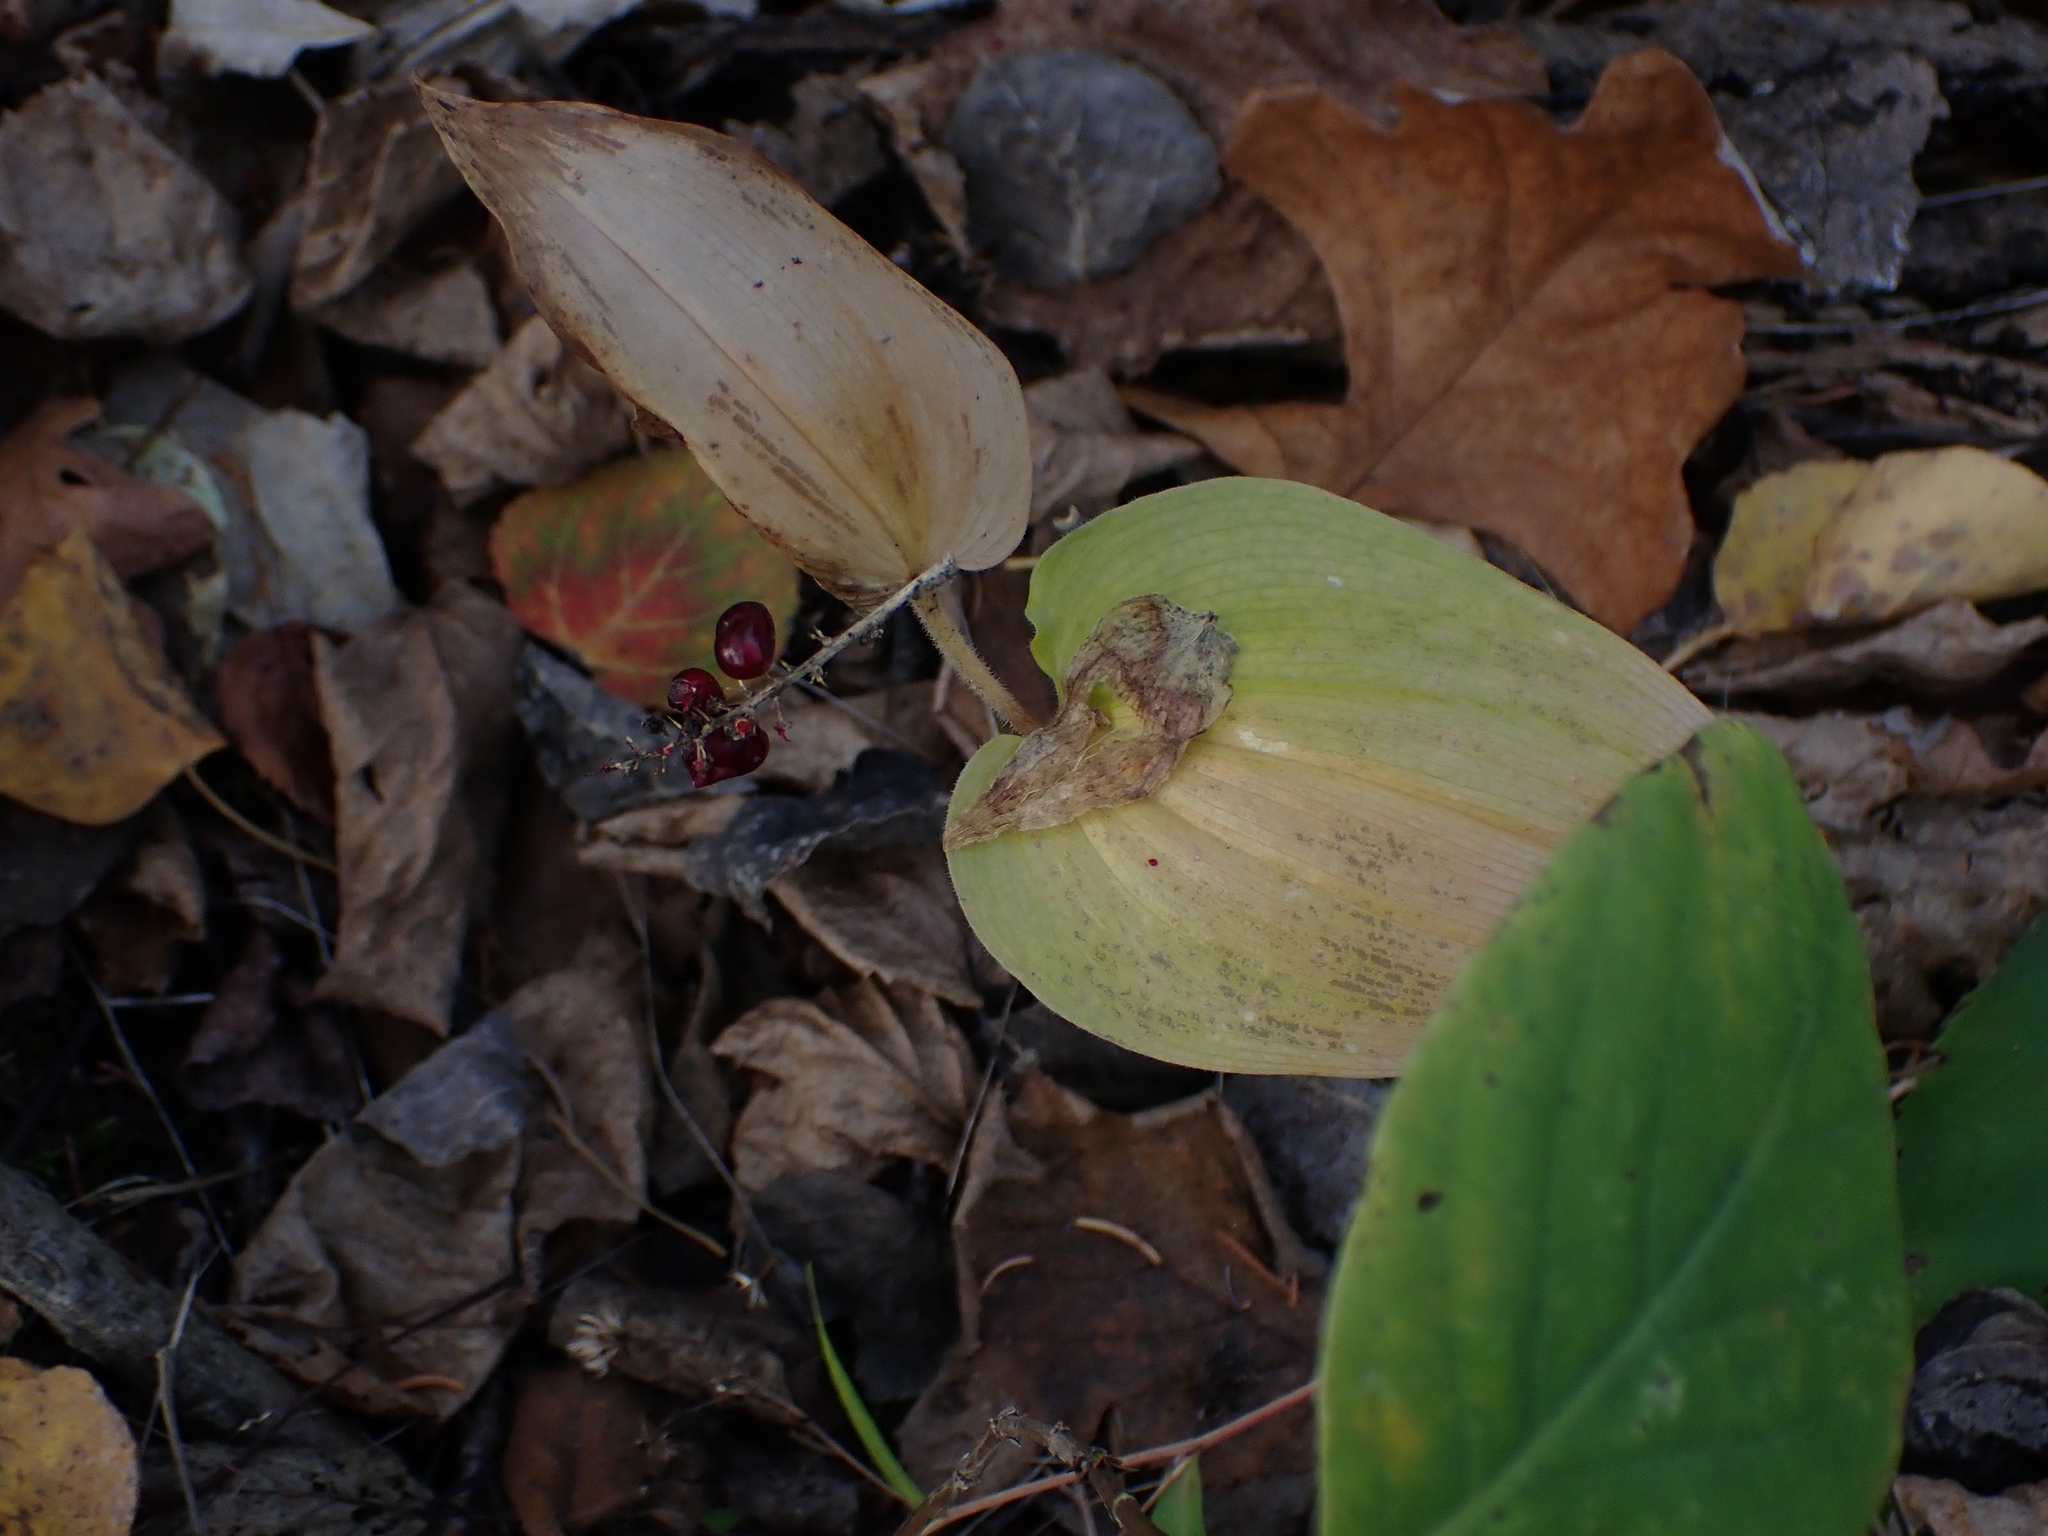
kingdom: Plantae
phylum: Tracheophyta
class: Liliopsida
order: Asparagales
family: Asparagaceae
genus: Maianthemum
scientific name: Maianthemum canadense
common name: False lily-of-the-valley
